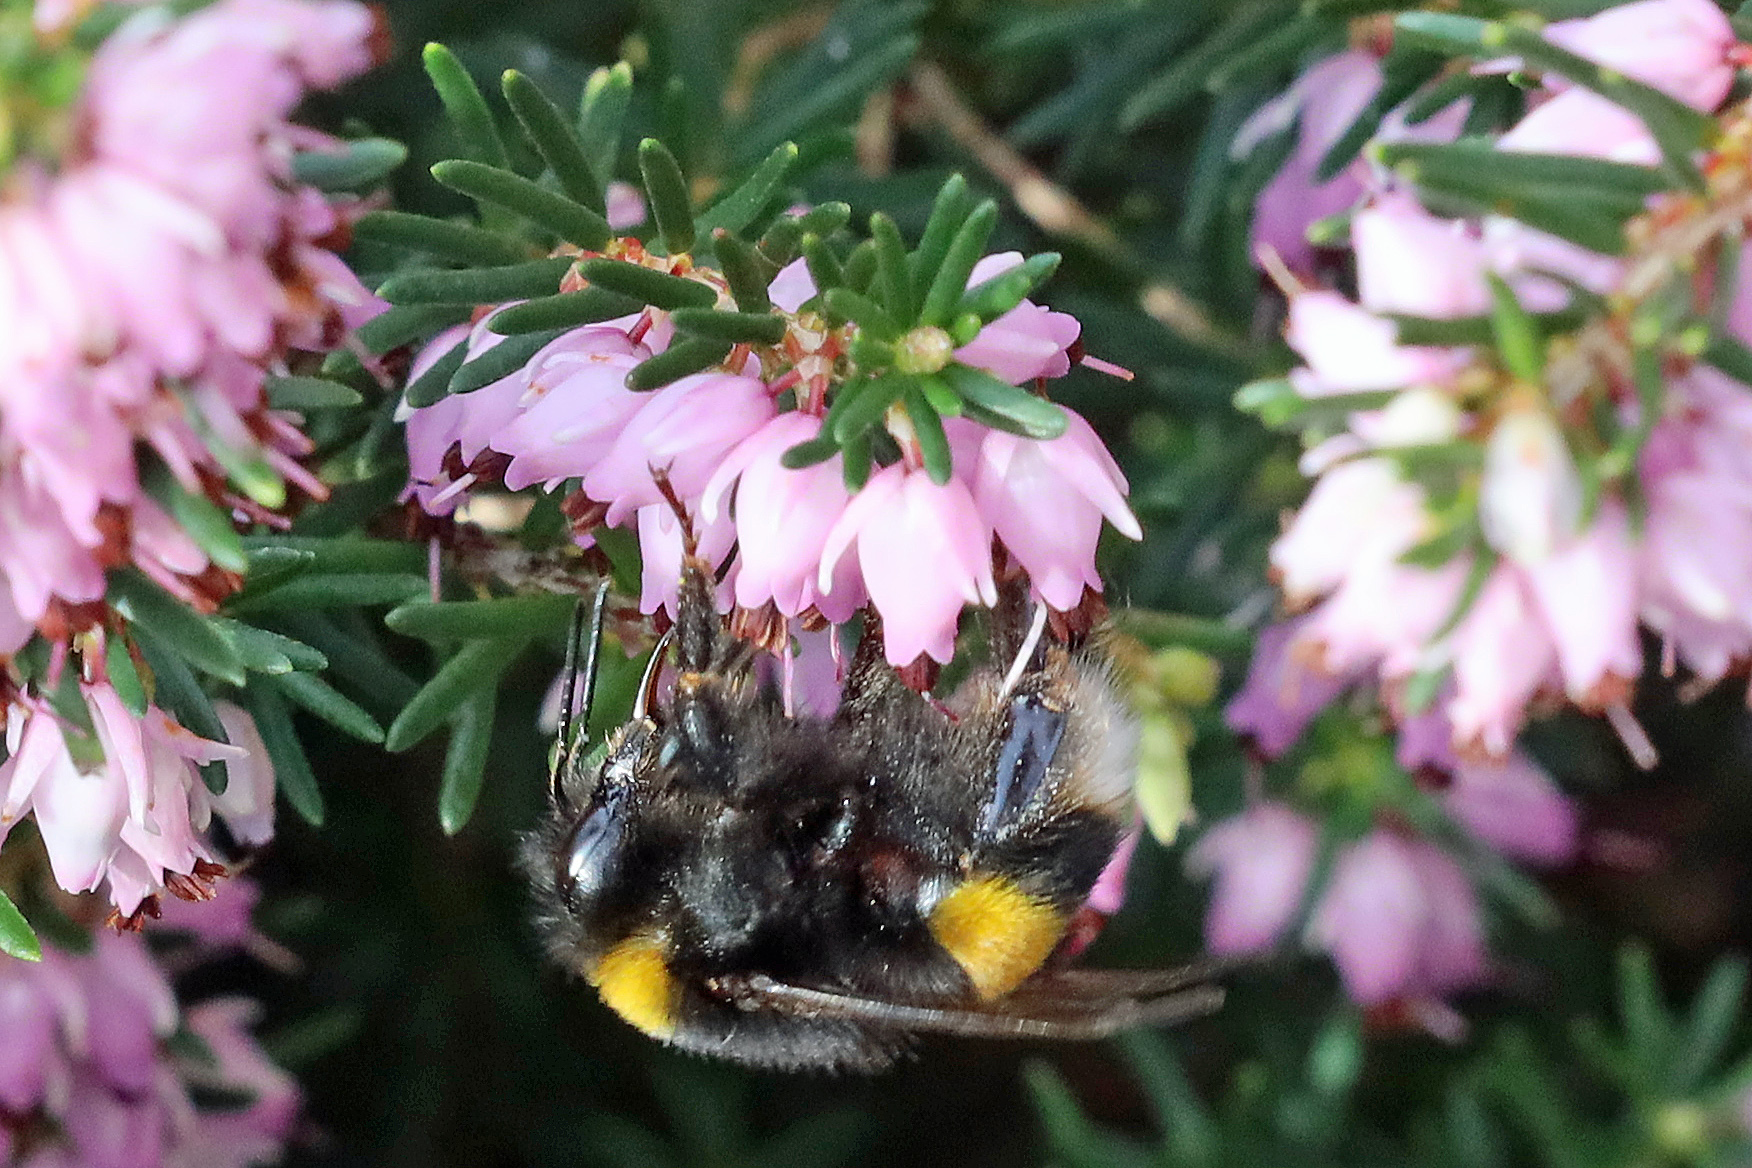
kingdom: Animalia
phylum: Arthropoda
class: Insecta
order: Hymenoptera
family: Apidae
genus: Bombus
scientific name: Bombus
